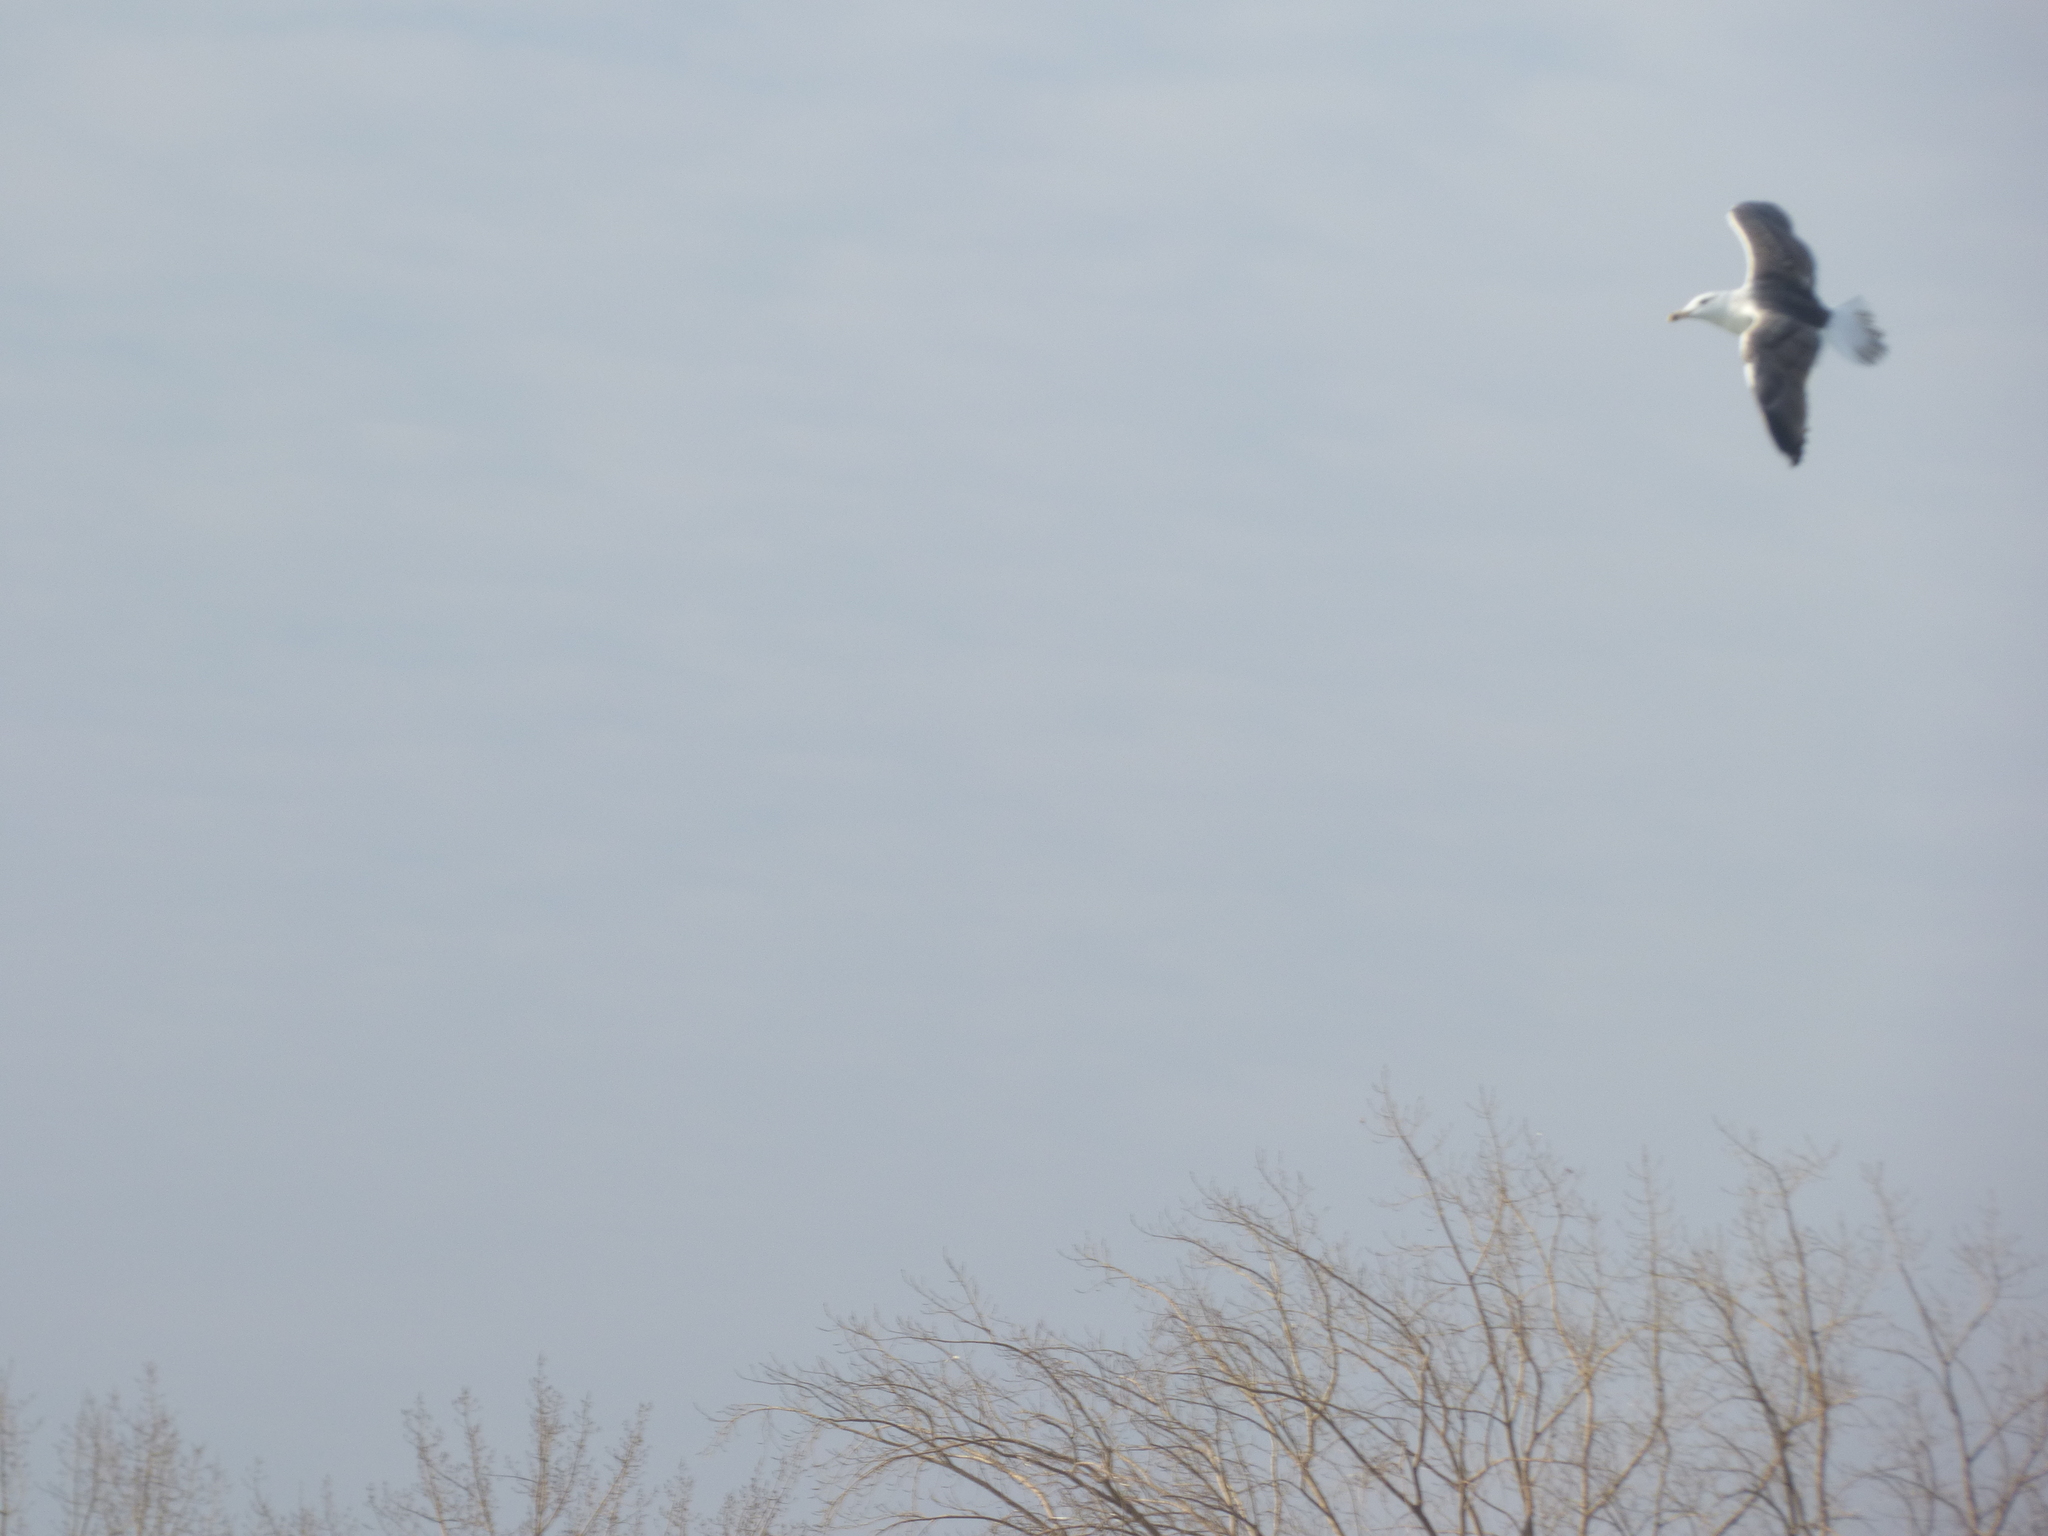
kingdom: Animalia
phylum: Chordata
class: Aves
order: Charadriiformes
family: Laridae
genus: Larus
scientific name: Larus marinus
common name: Great black-backed gull
